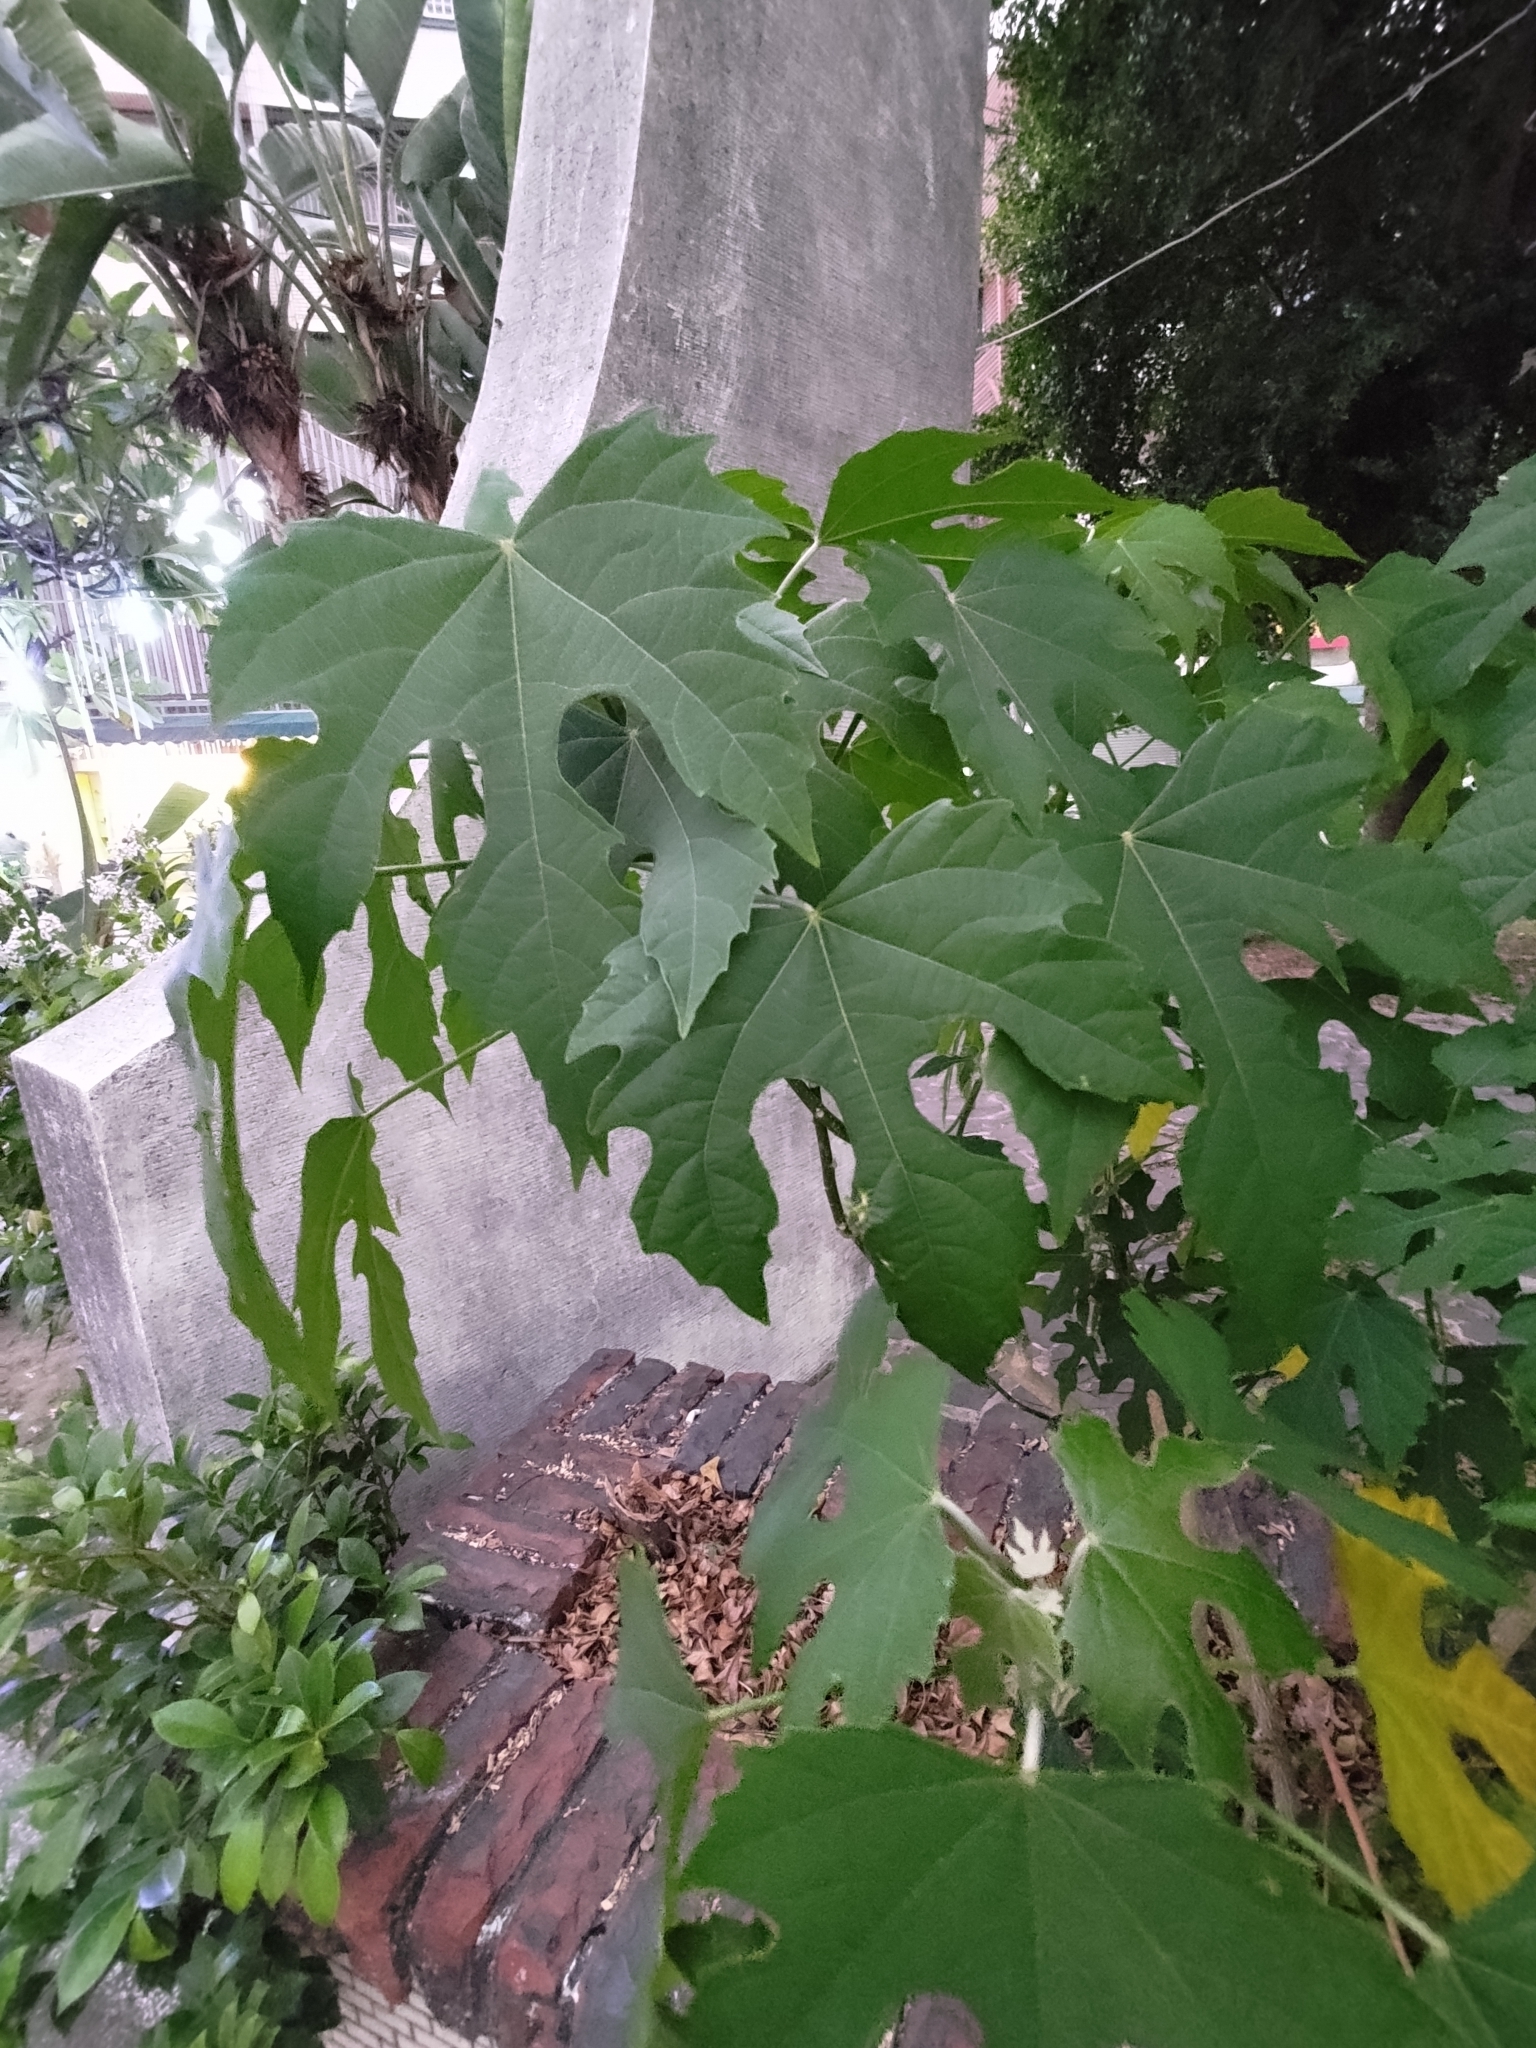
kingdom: Plantae
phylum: Tracheophyta
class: Magnoliopsida
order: Malpighiales
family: Euphorbiaceae
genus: Melanolepis
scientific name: Melanolepis multiglandulosa
